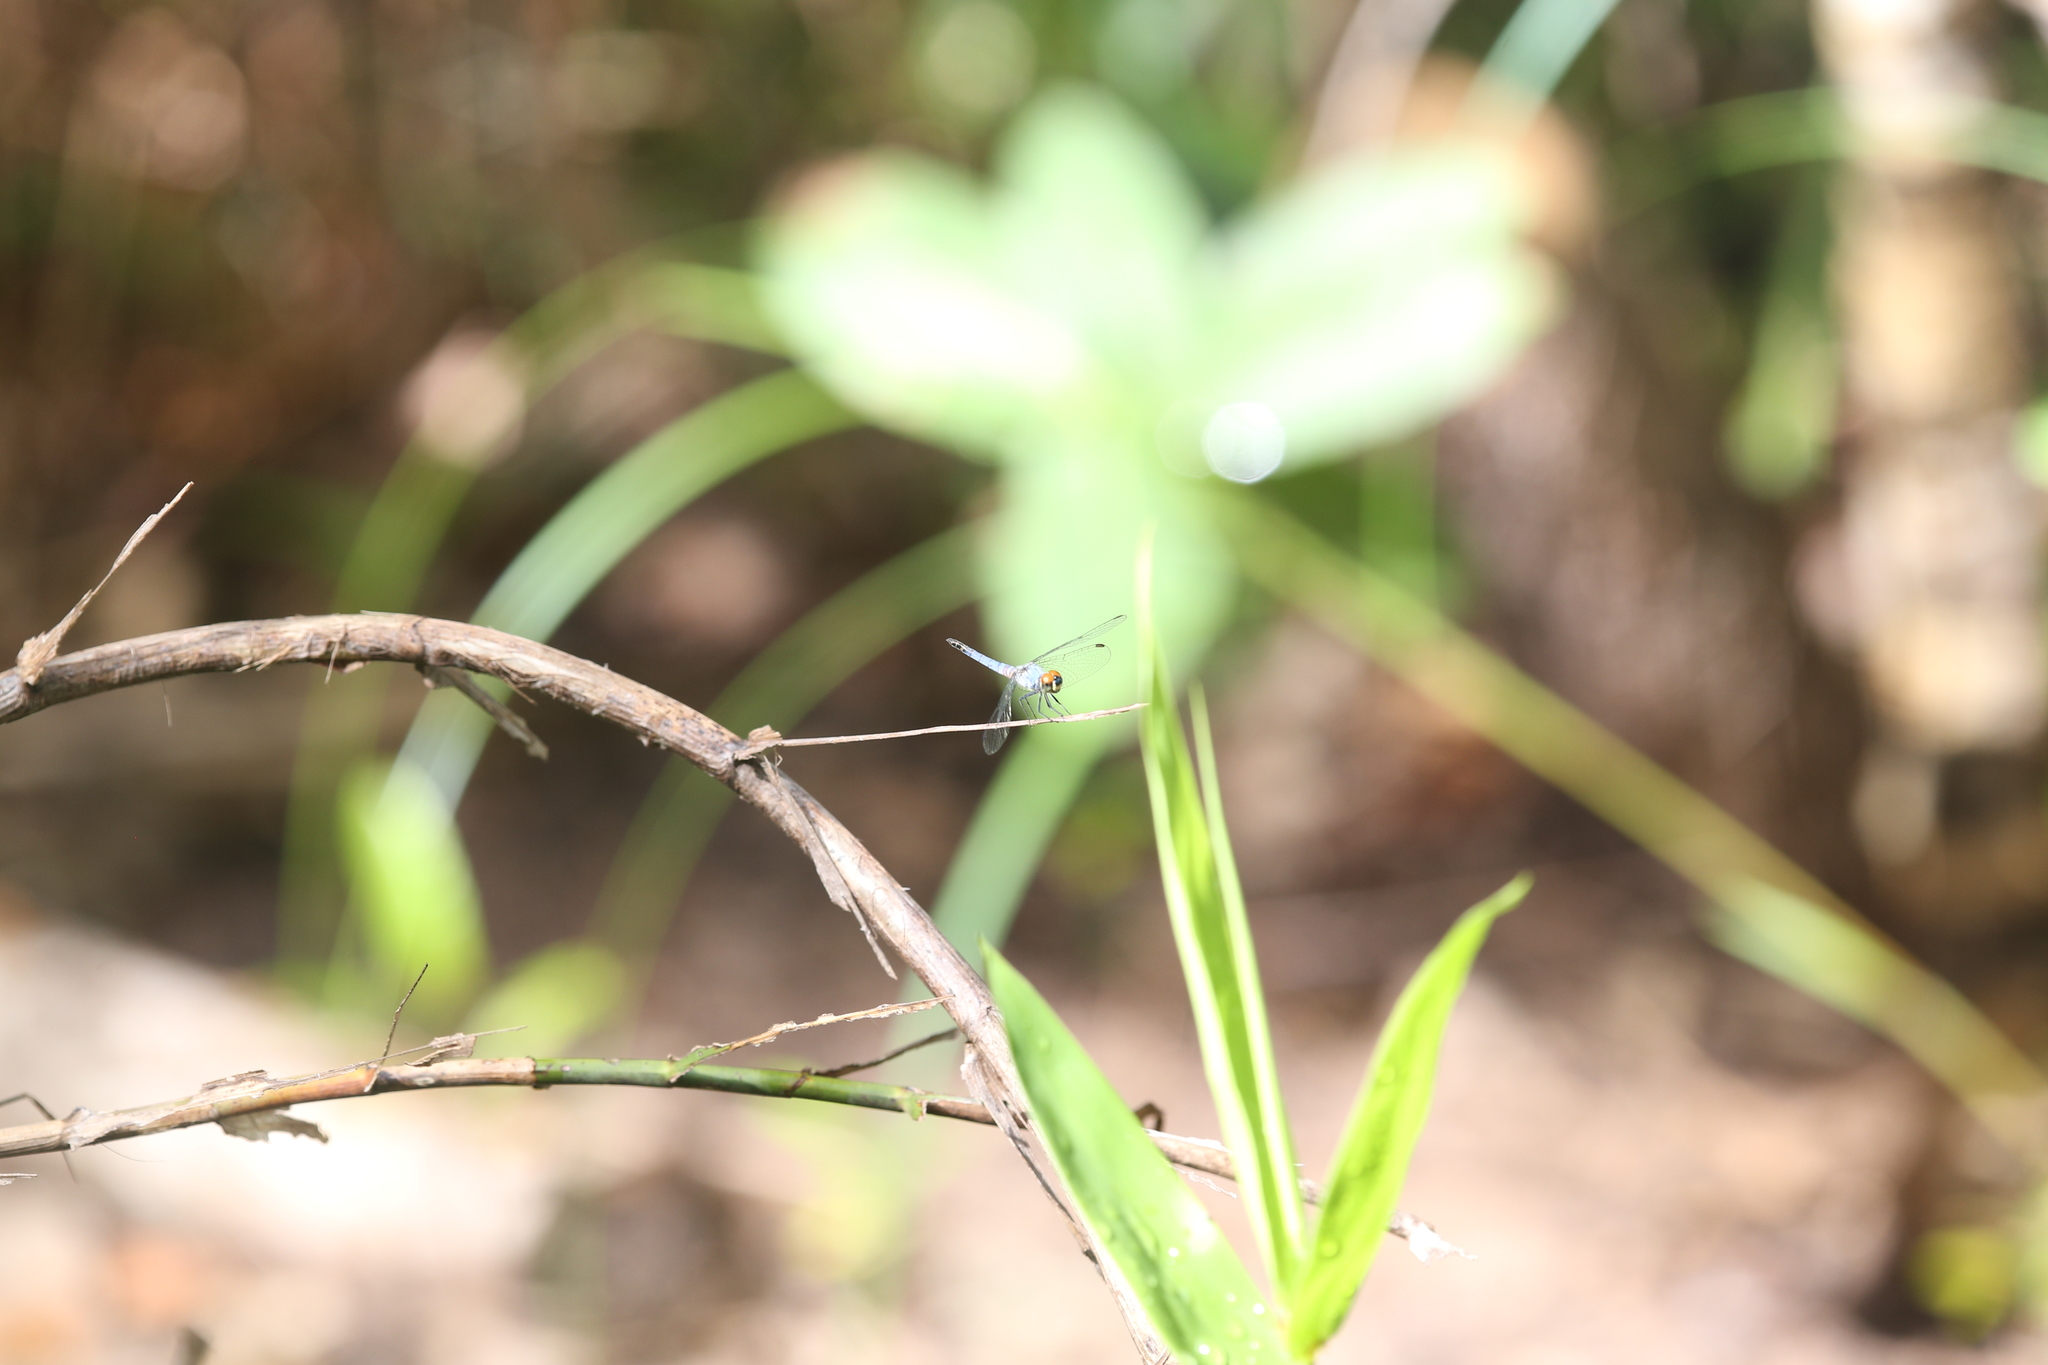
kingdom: Animalia
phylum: Arthropoda
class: Insecta
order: Odonata
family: Libellulidae
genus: Brachydiplax
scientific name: Brachydiplax denticauda
